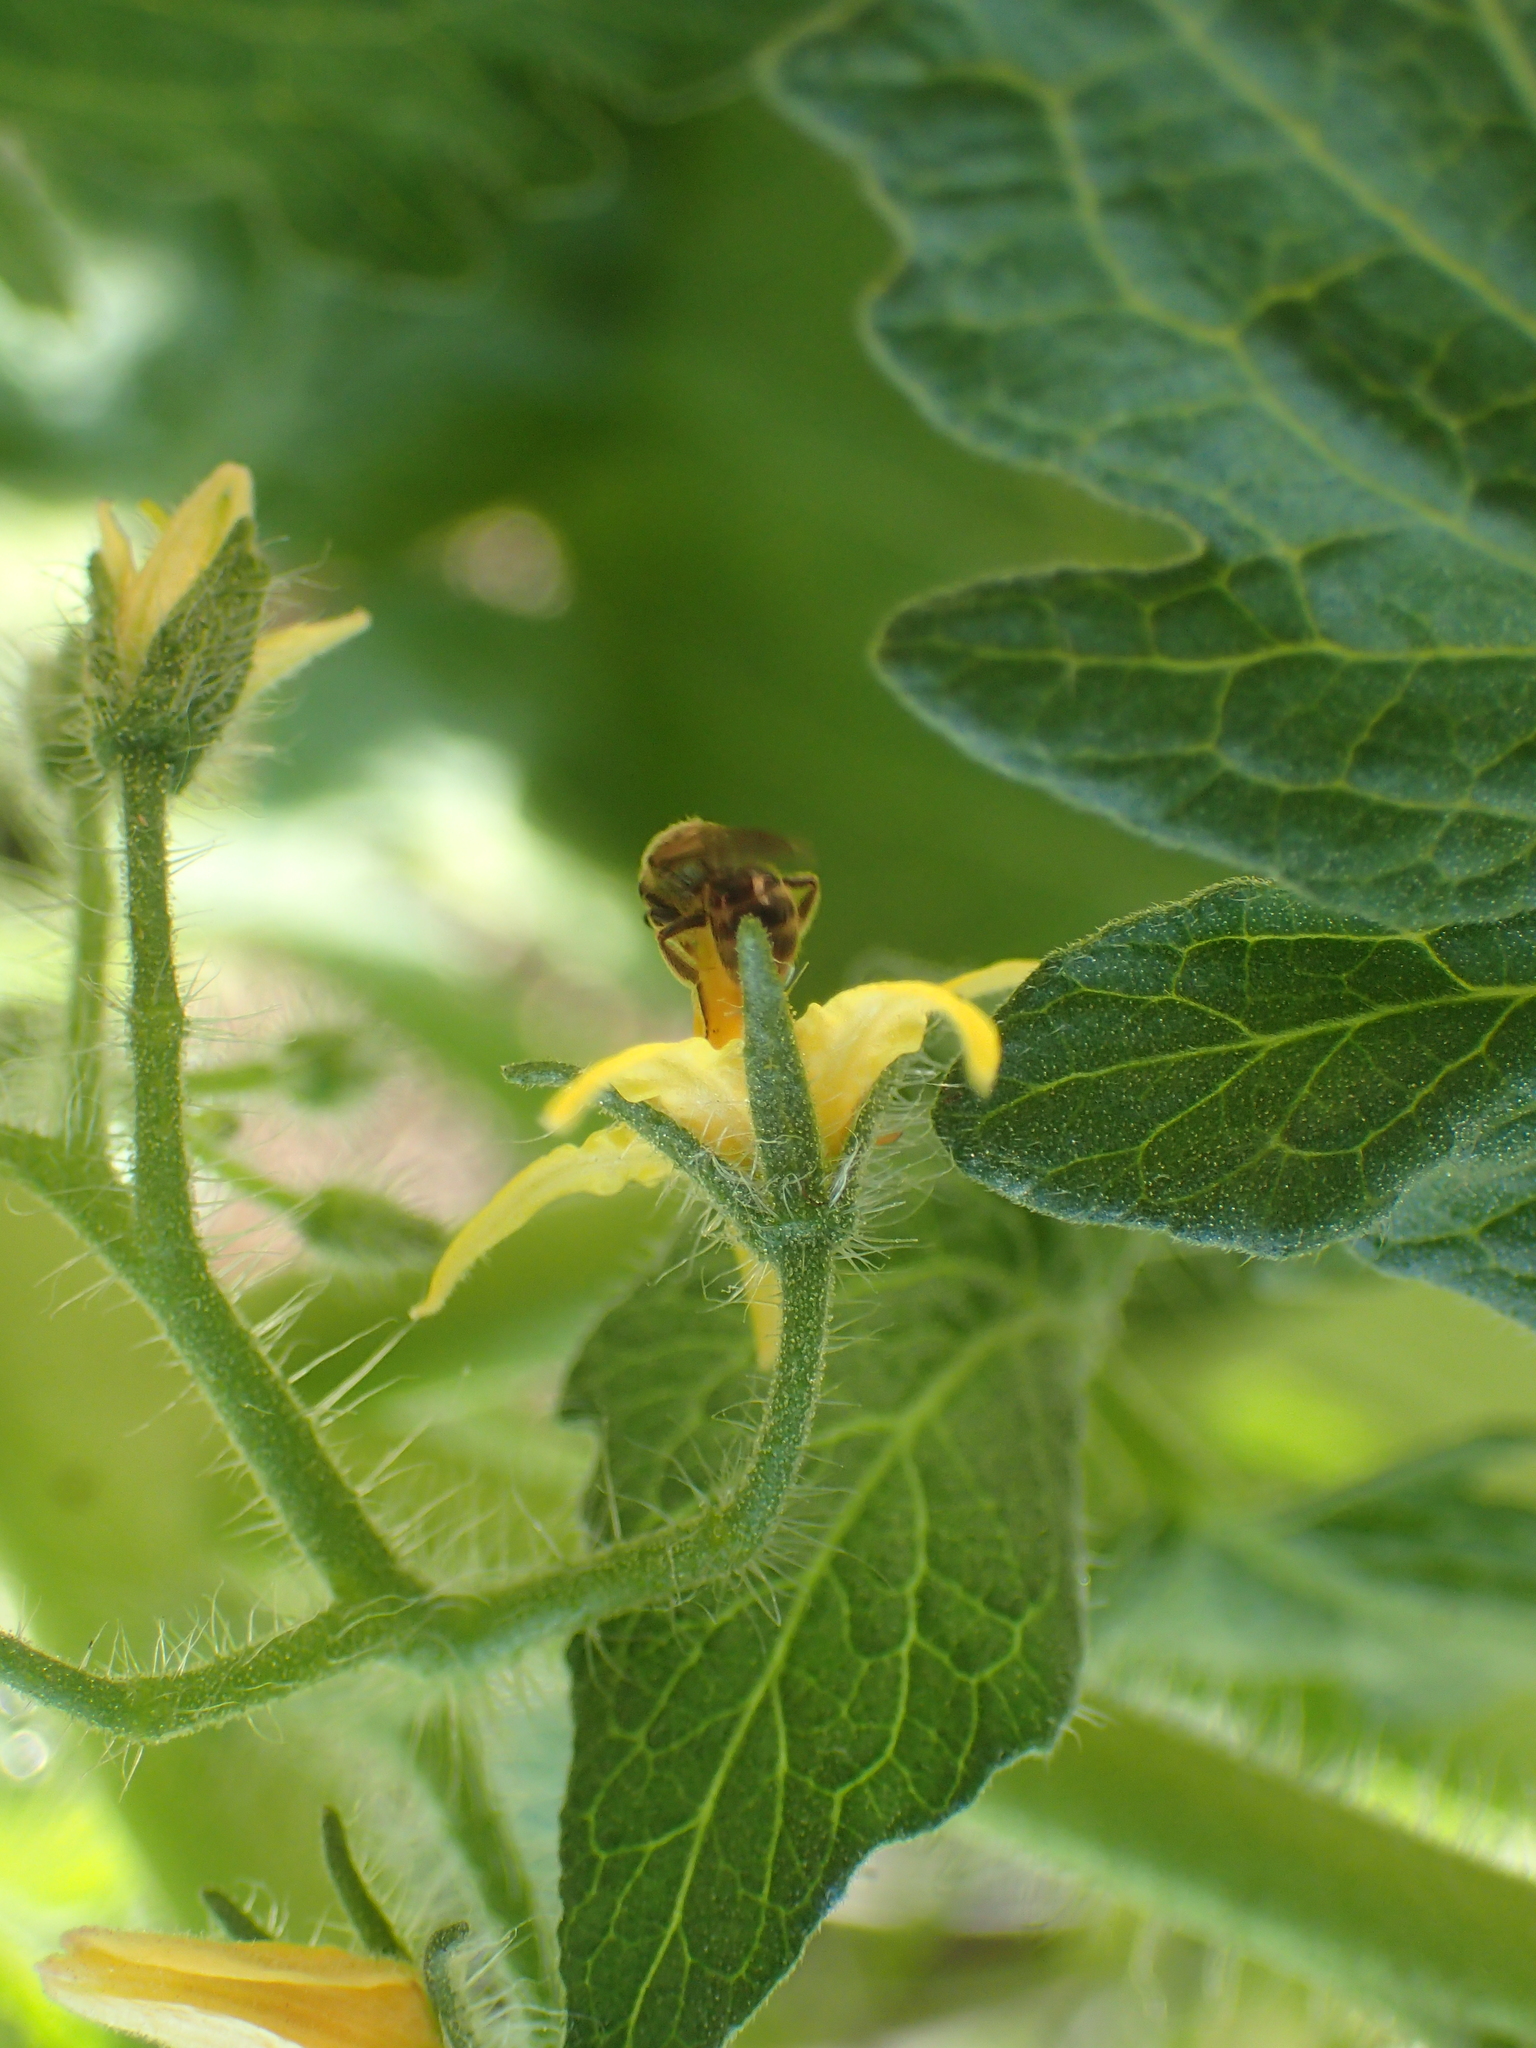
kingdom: Animalia
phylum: Arthropoda
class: Insecta
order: Hymenoptera
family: Halictidae
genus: Dialictus
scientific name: Dialictus
